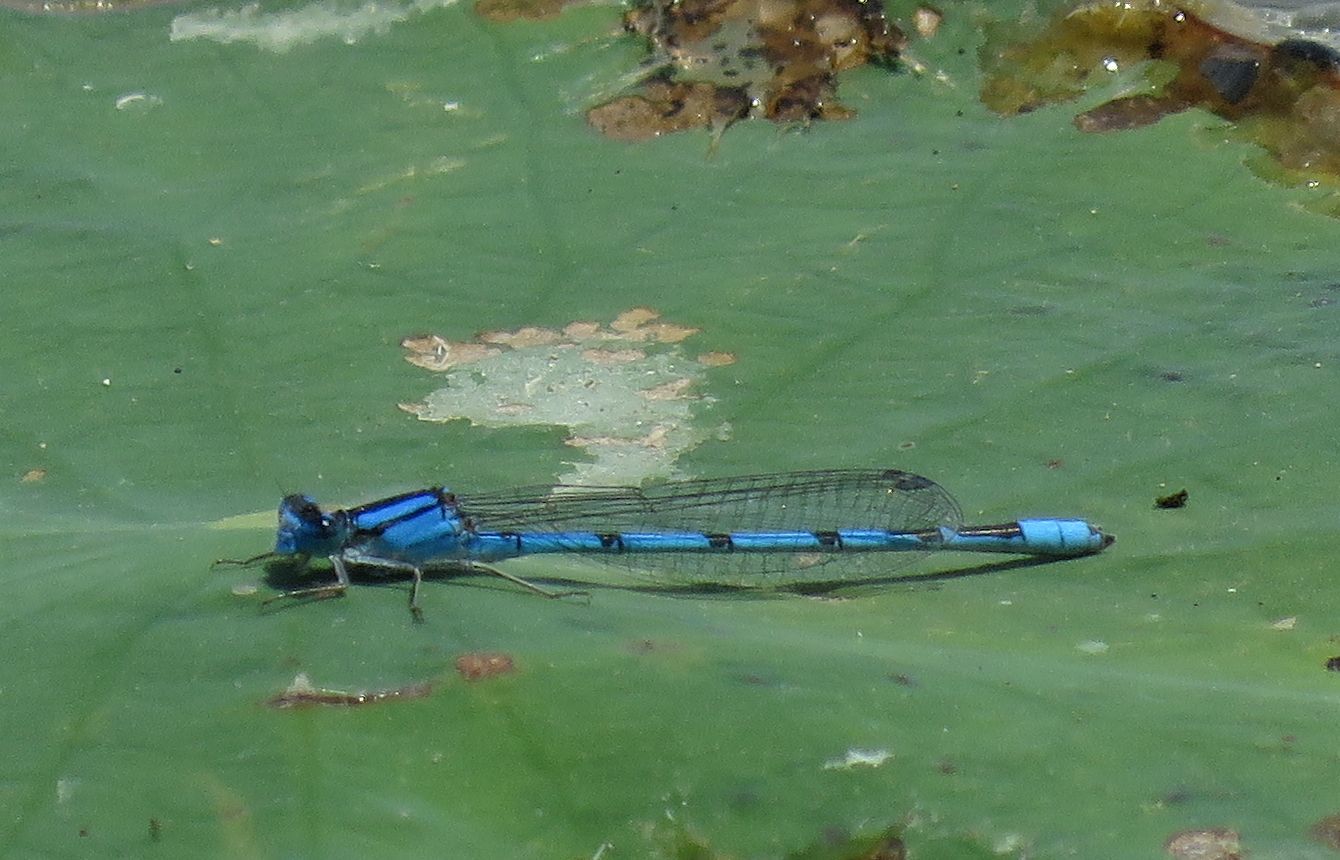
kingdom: Animalia
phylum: Arthropoda
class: Insecta
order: Odonata
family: Coenagrionidae
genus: Enallagma
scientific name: Enallagma civile
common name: Damselfly
